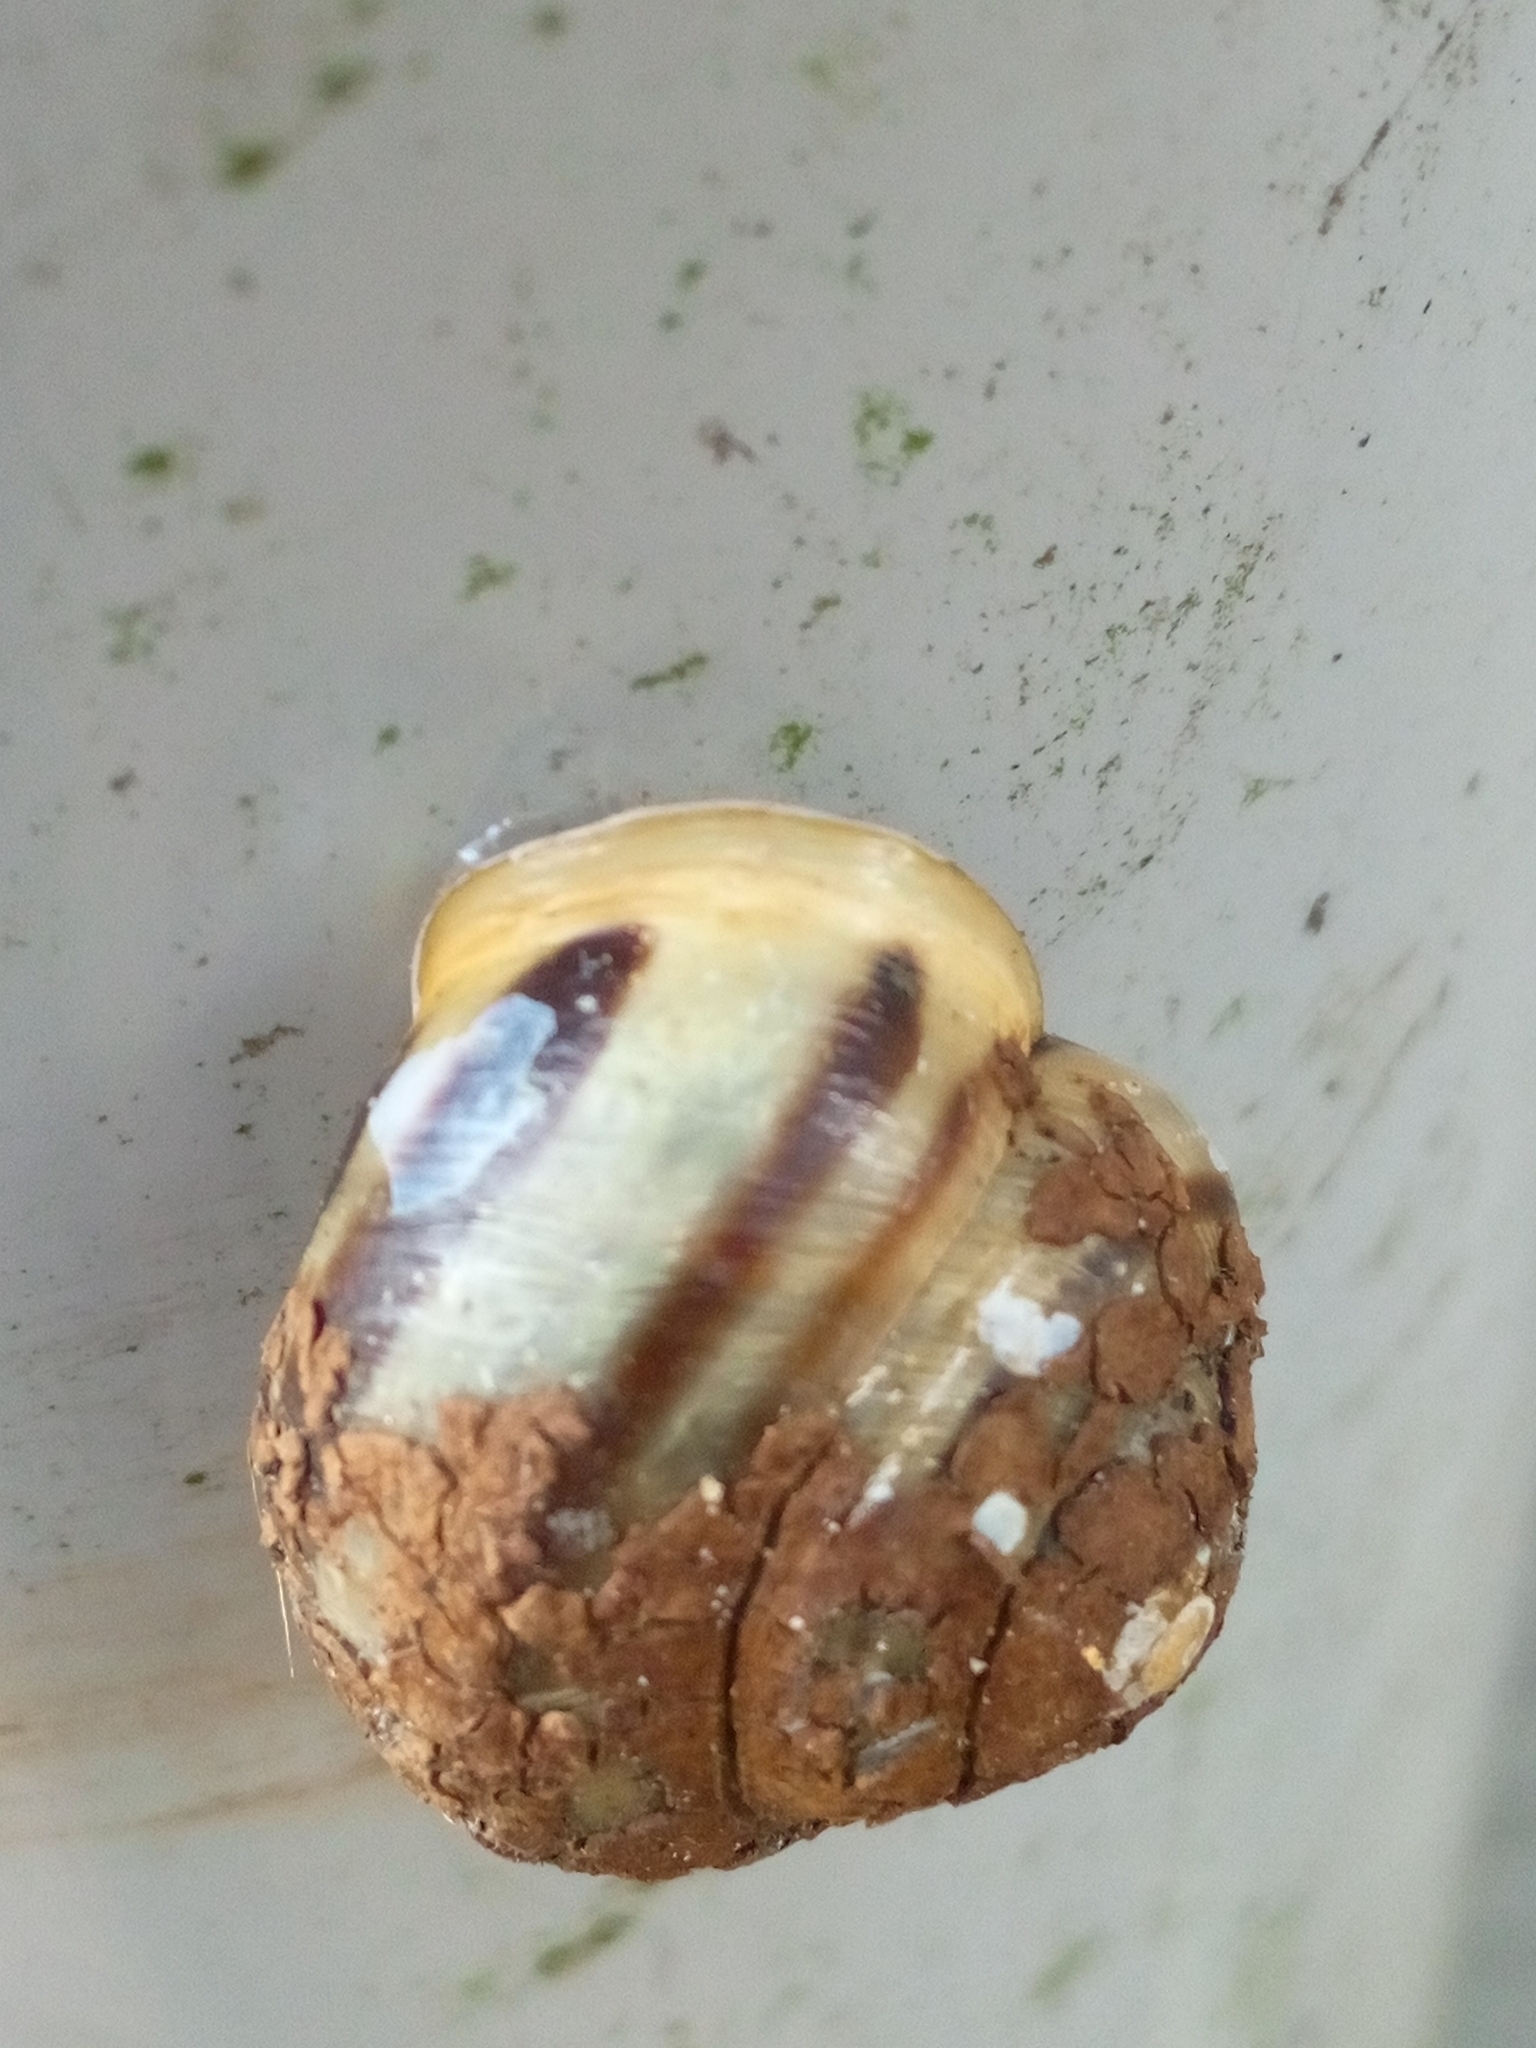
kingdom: Animalia
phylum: Mollusca
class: Gastropoda
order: Stylommatophora
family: Helicidae
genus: Cepaea
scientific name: Cepaea hortensis
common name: White-lip gardensnail
